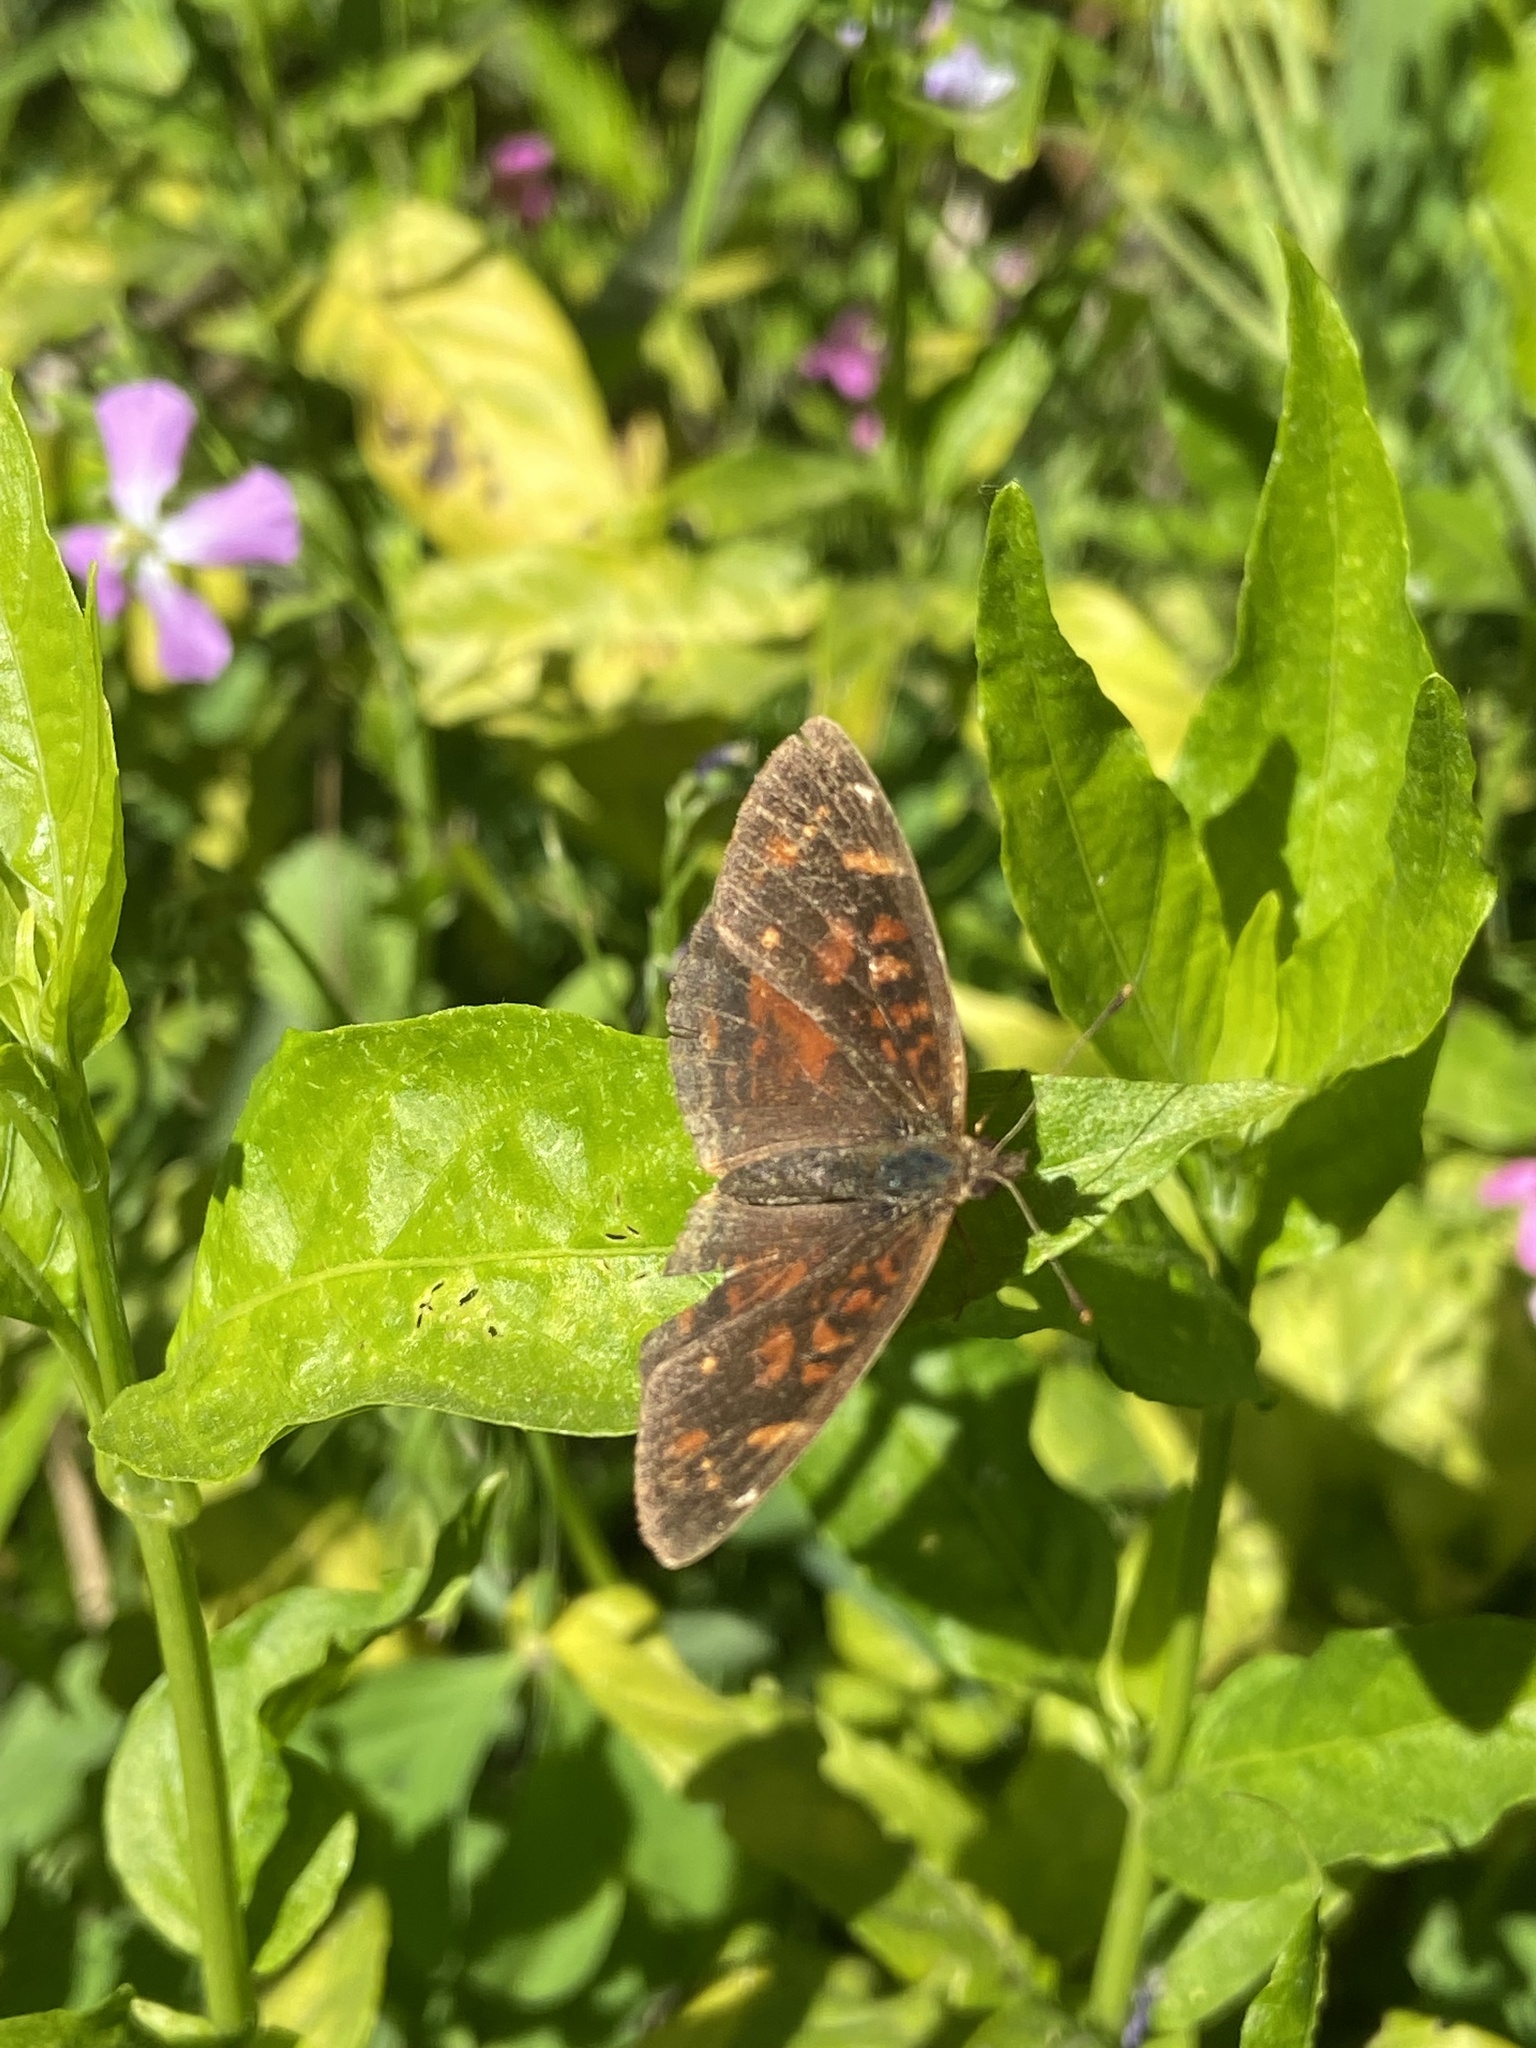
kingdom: Animalia
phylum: Arthropoda
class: Insecta
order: Lepidoptera
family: Nymphalidae
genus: Ortilia
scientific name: Ortilia velica
